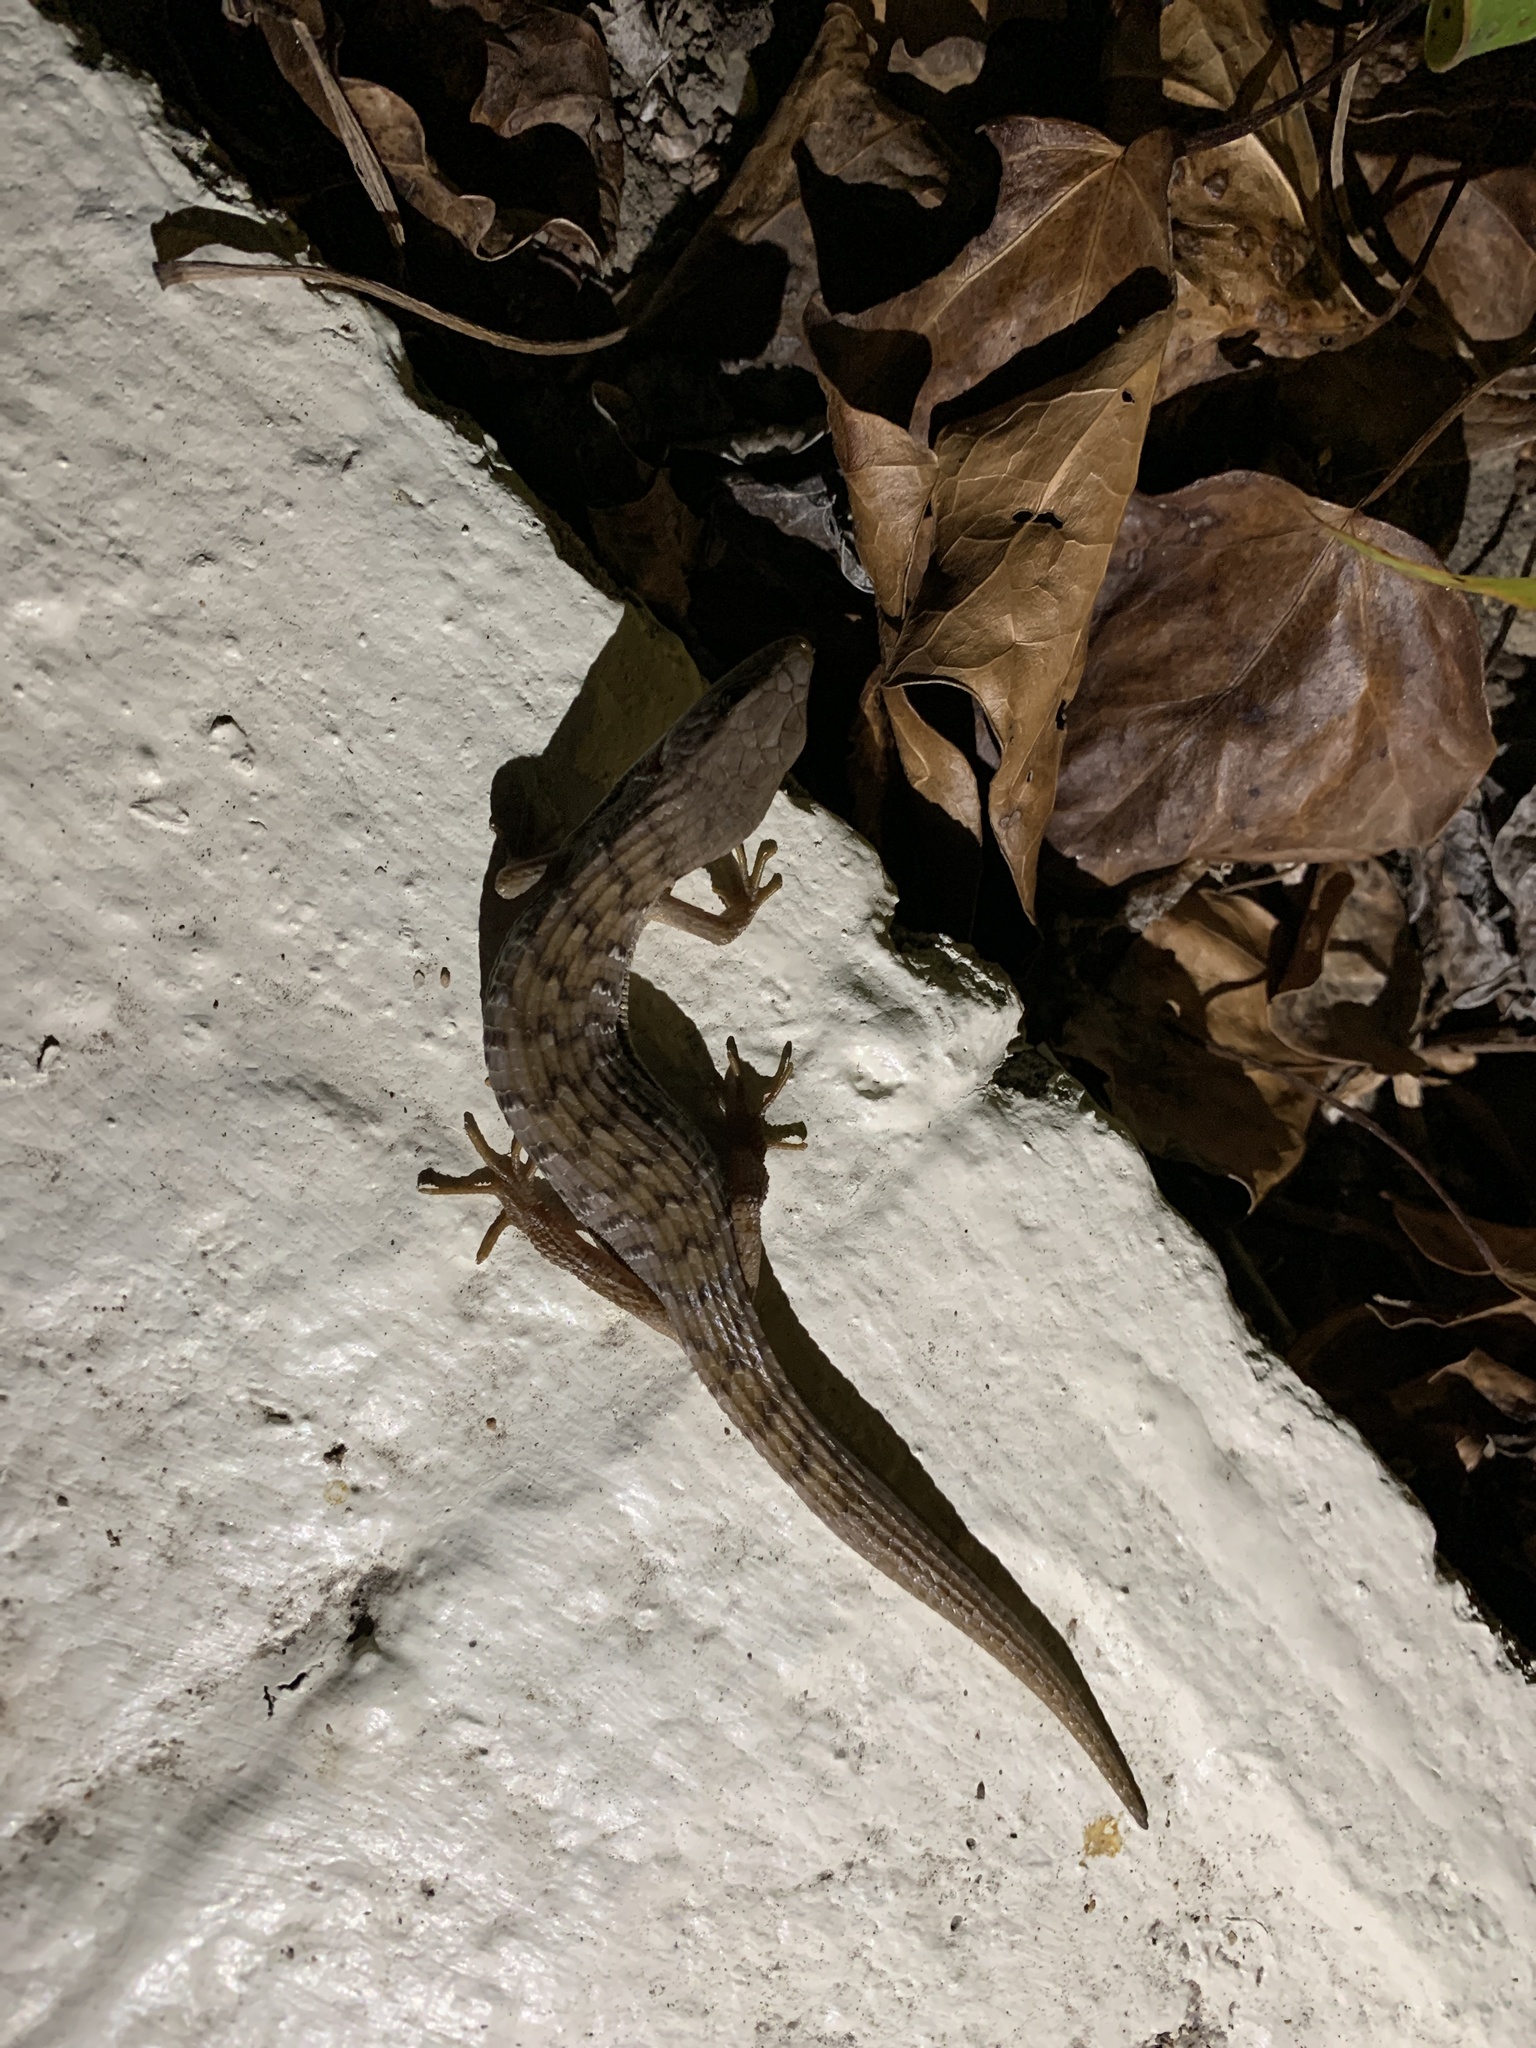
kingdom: Animalia
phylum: Chordata
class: Squamata
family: Anguidae
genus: Elgaria
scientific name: Elgaria multicarinata
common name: Southern alligator lizard
